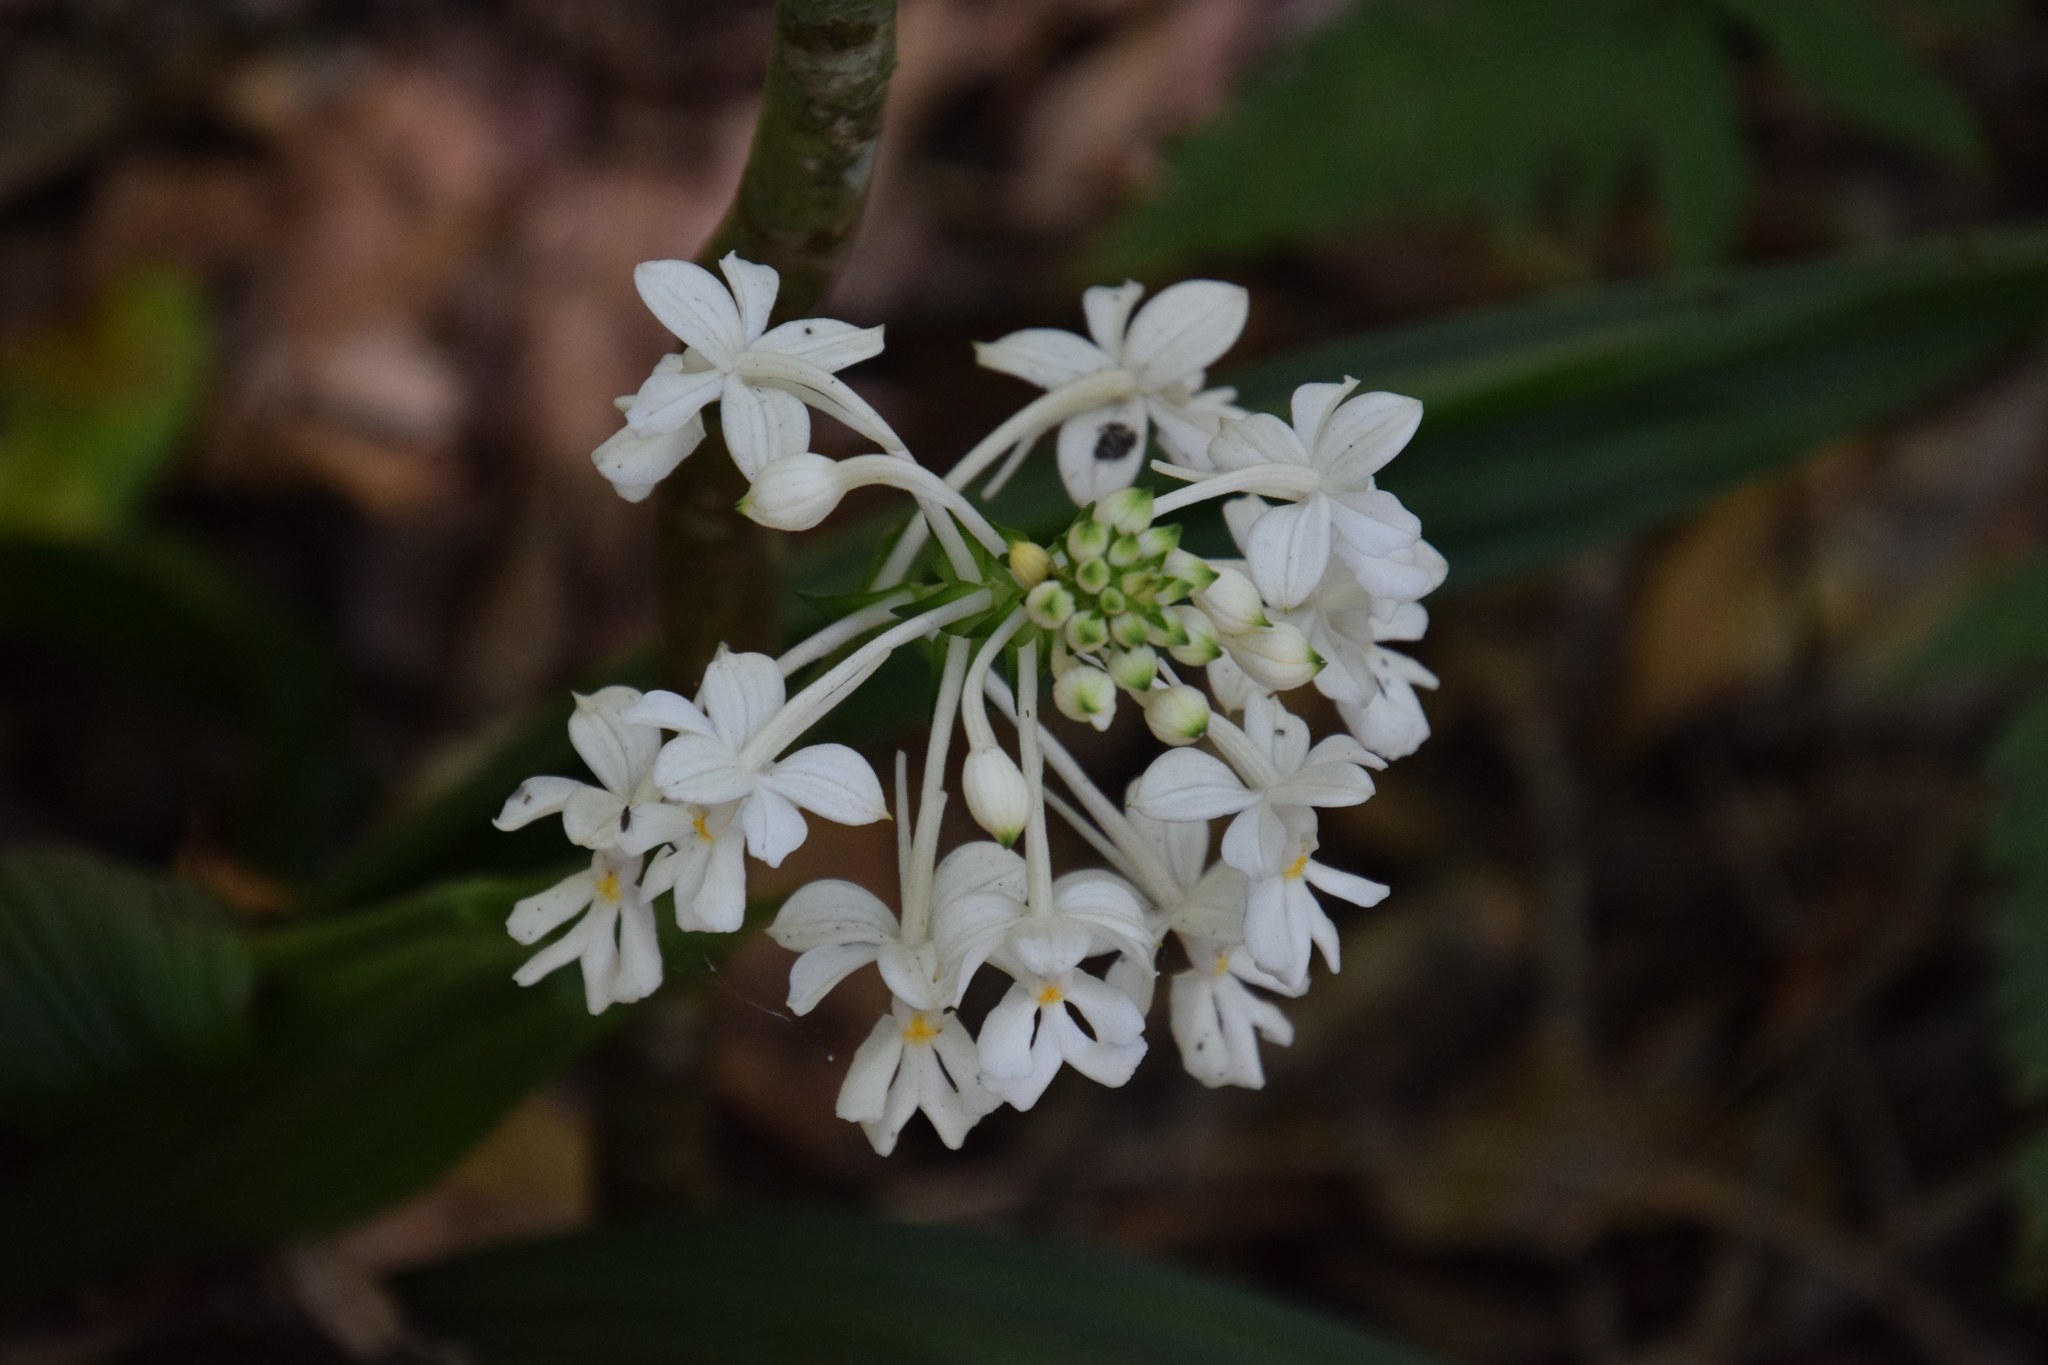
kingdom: Plantae
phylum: Tracheophyta
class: Liliopsida
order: Asparagales
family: Orchidaceae
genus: Calanthe
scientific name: Calanthe triplicata
